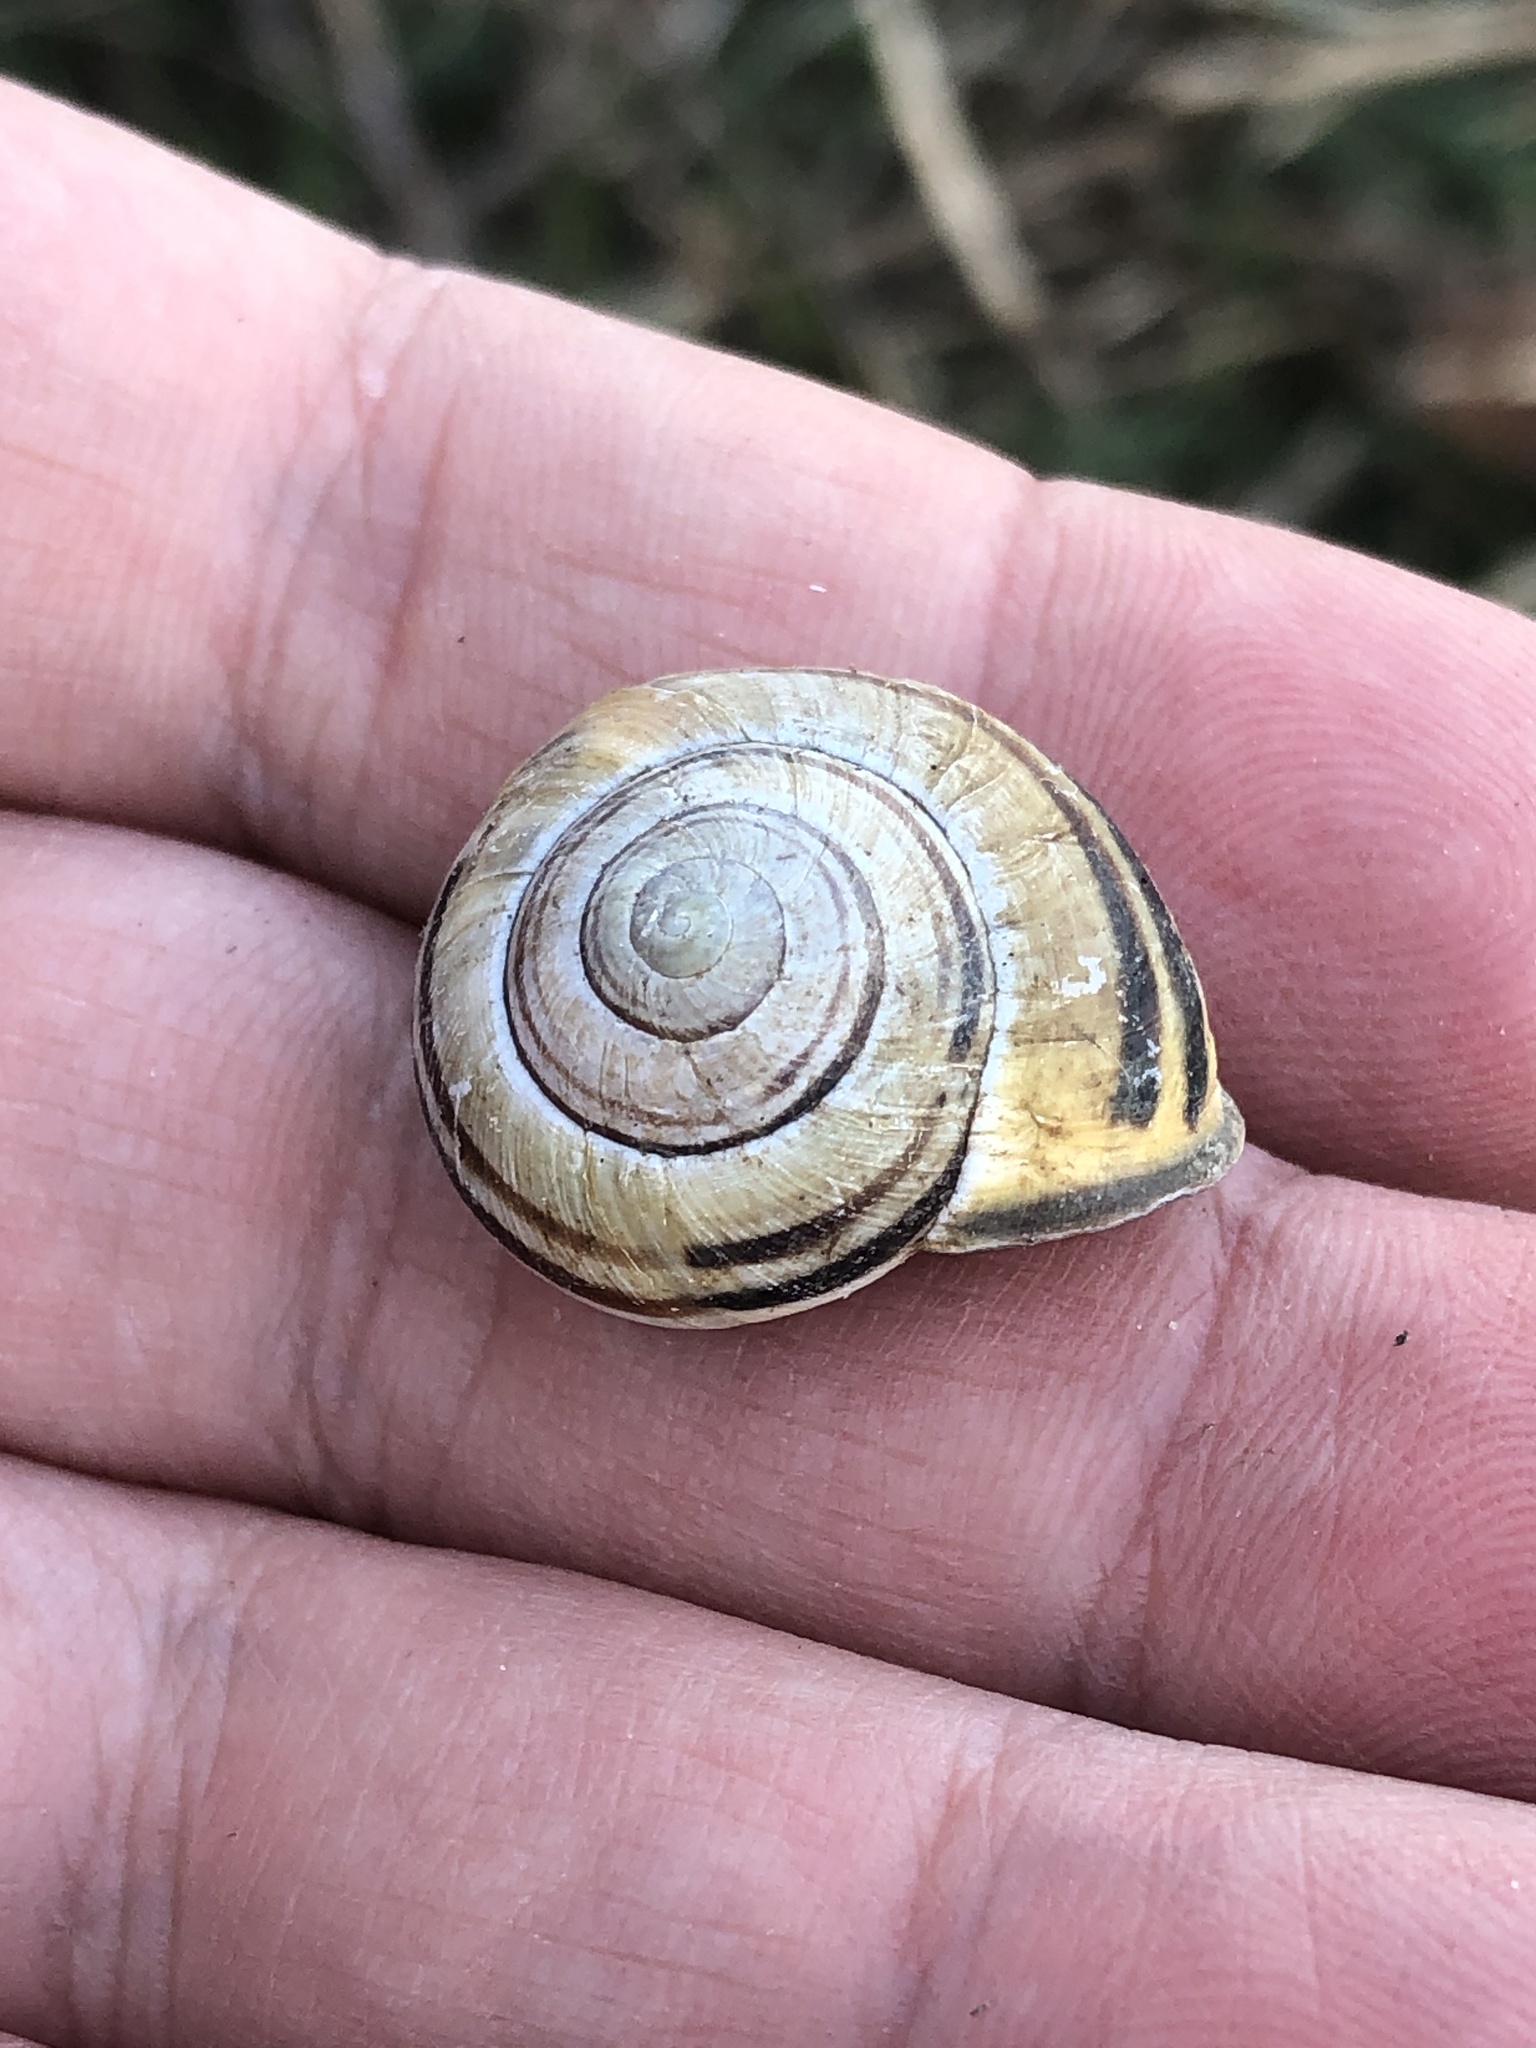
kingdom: Animalia
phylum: Mollusca
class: Gastropoda
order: Stylommatophora
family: Helicidae
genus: Cepaea
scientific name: Cepaea nemoralis
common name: Grovesnail
